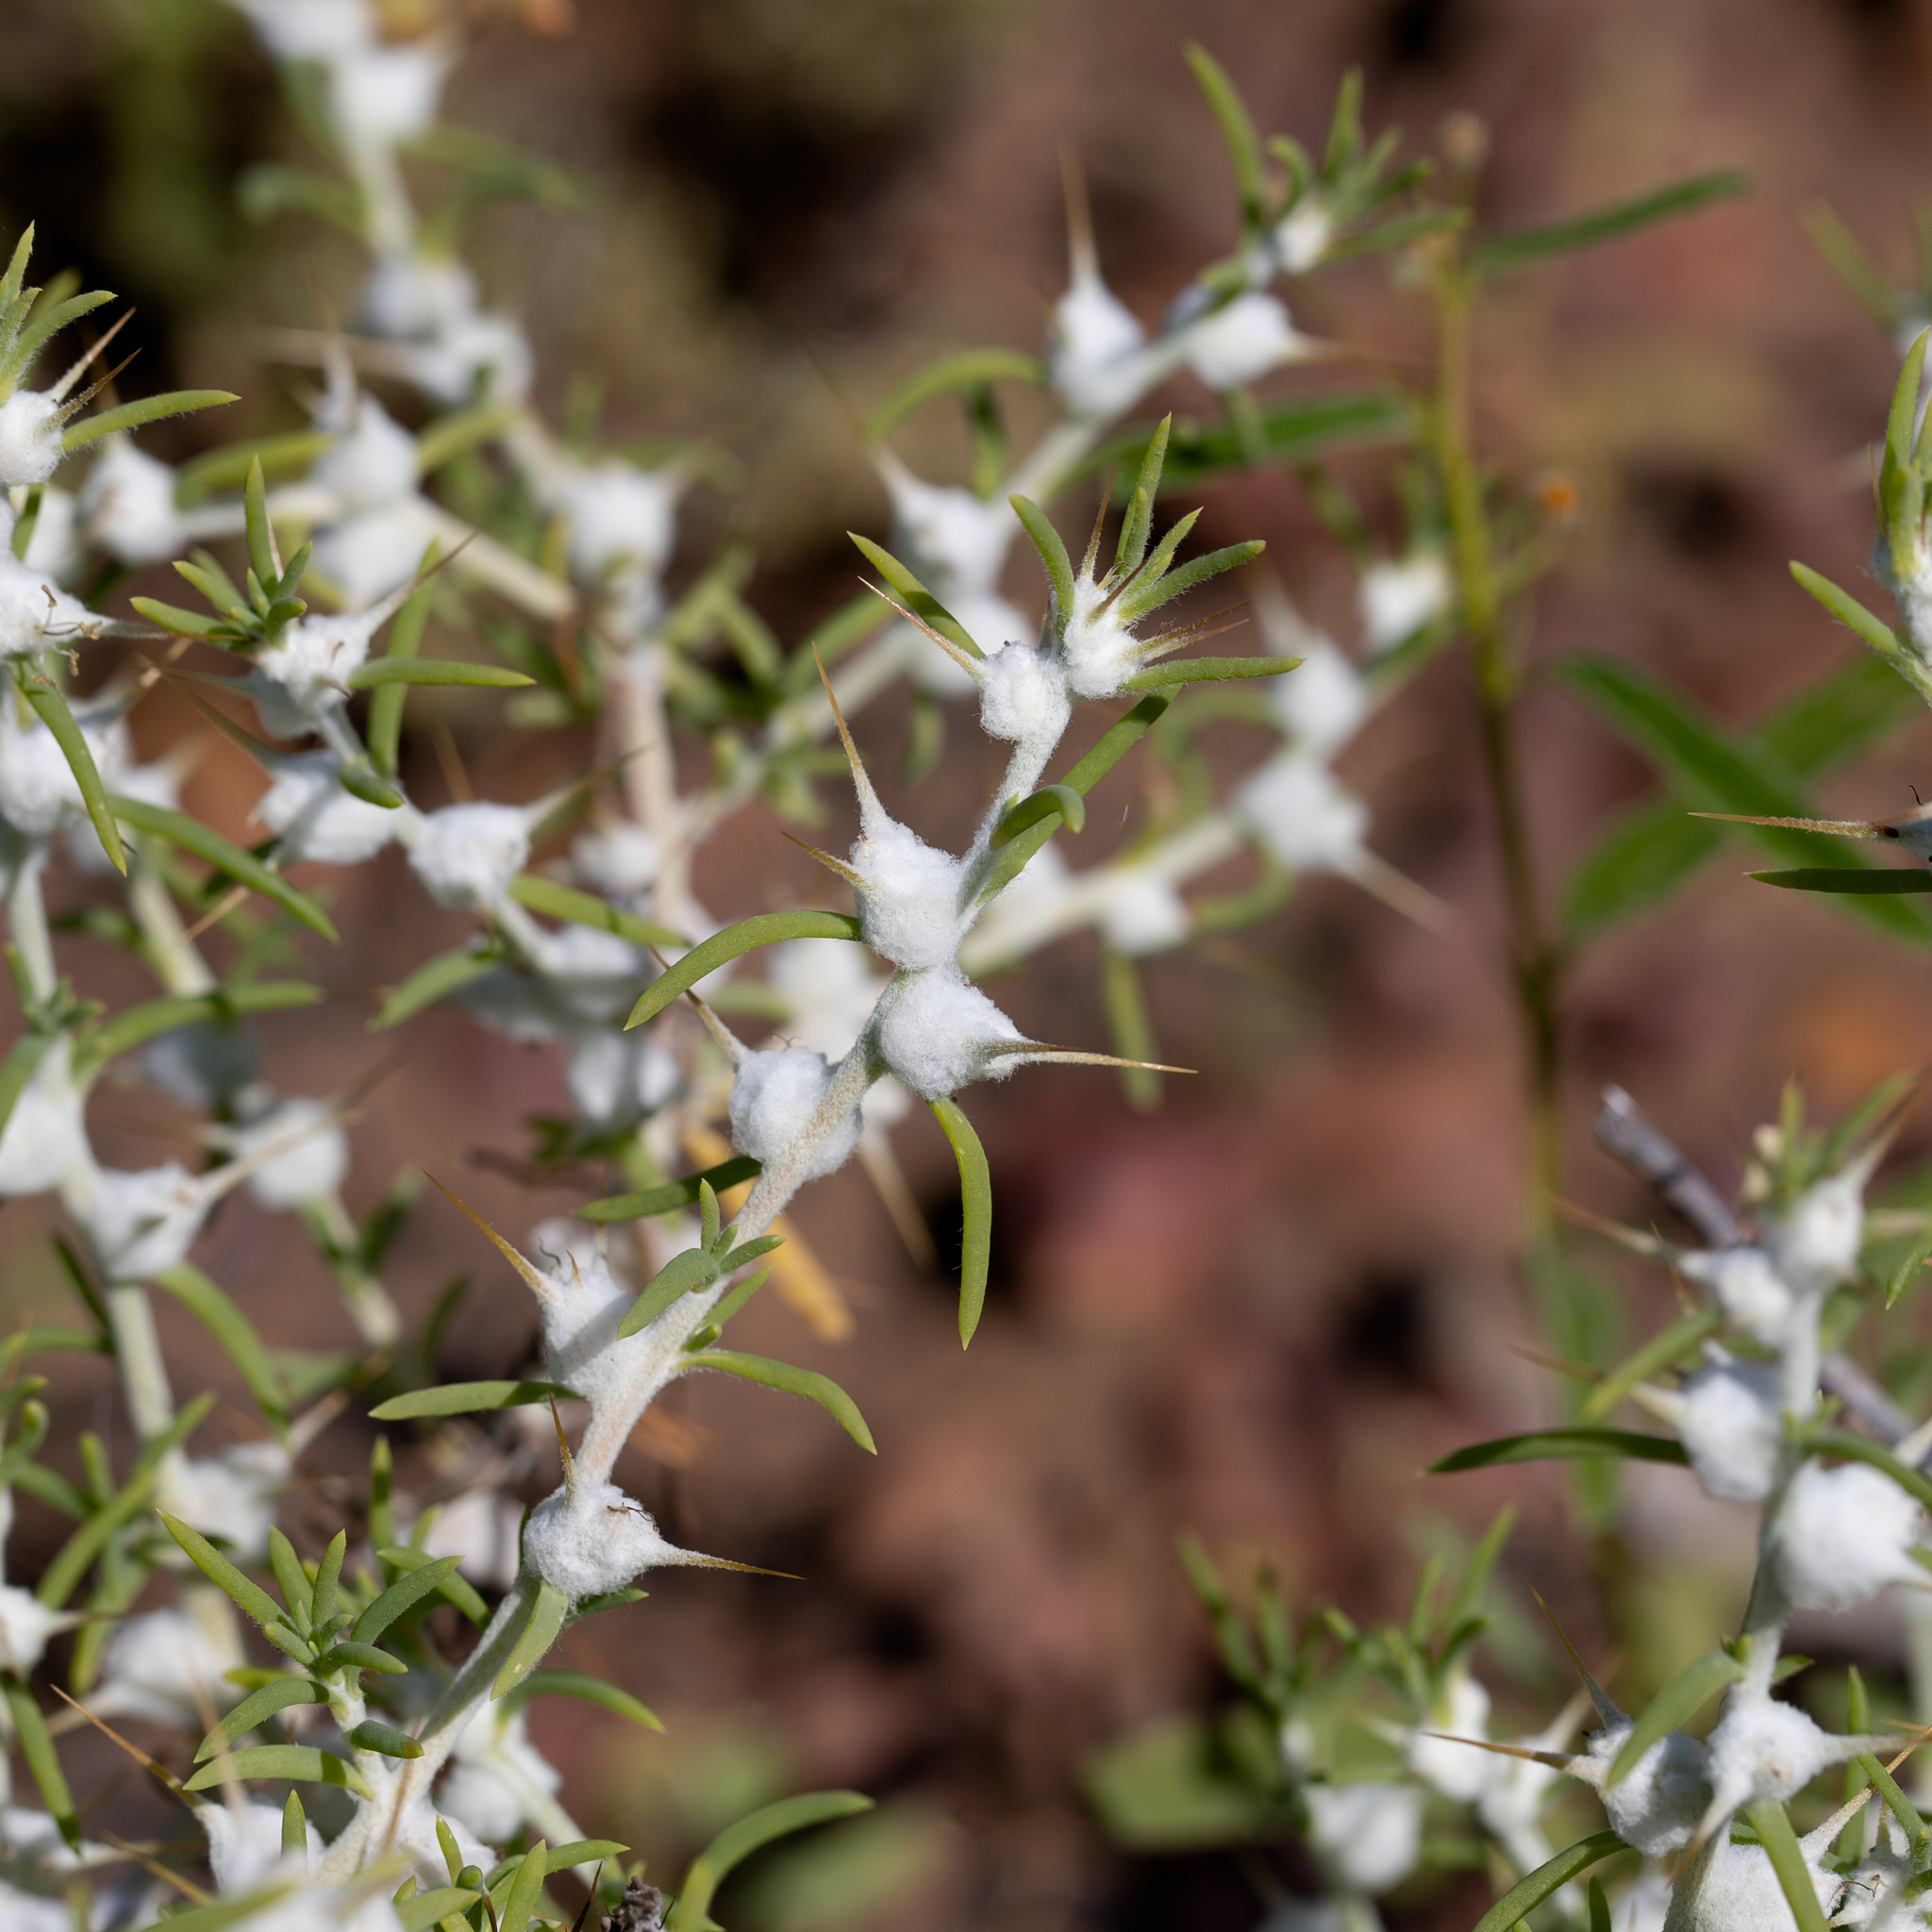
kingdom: Plantae
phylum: Tracheophyta
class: Magnoliopsida
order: Caryophyllales
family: Amaranthaceae
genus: Sclerolaena
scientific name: Sclerolaena bicornis
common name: Goatheadbur
